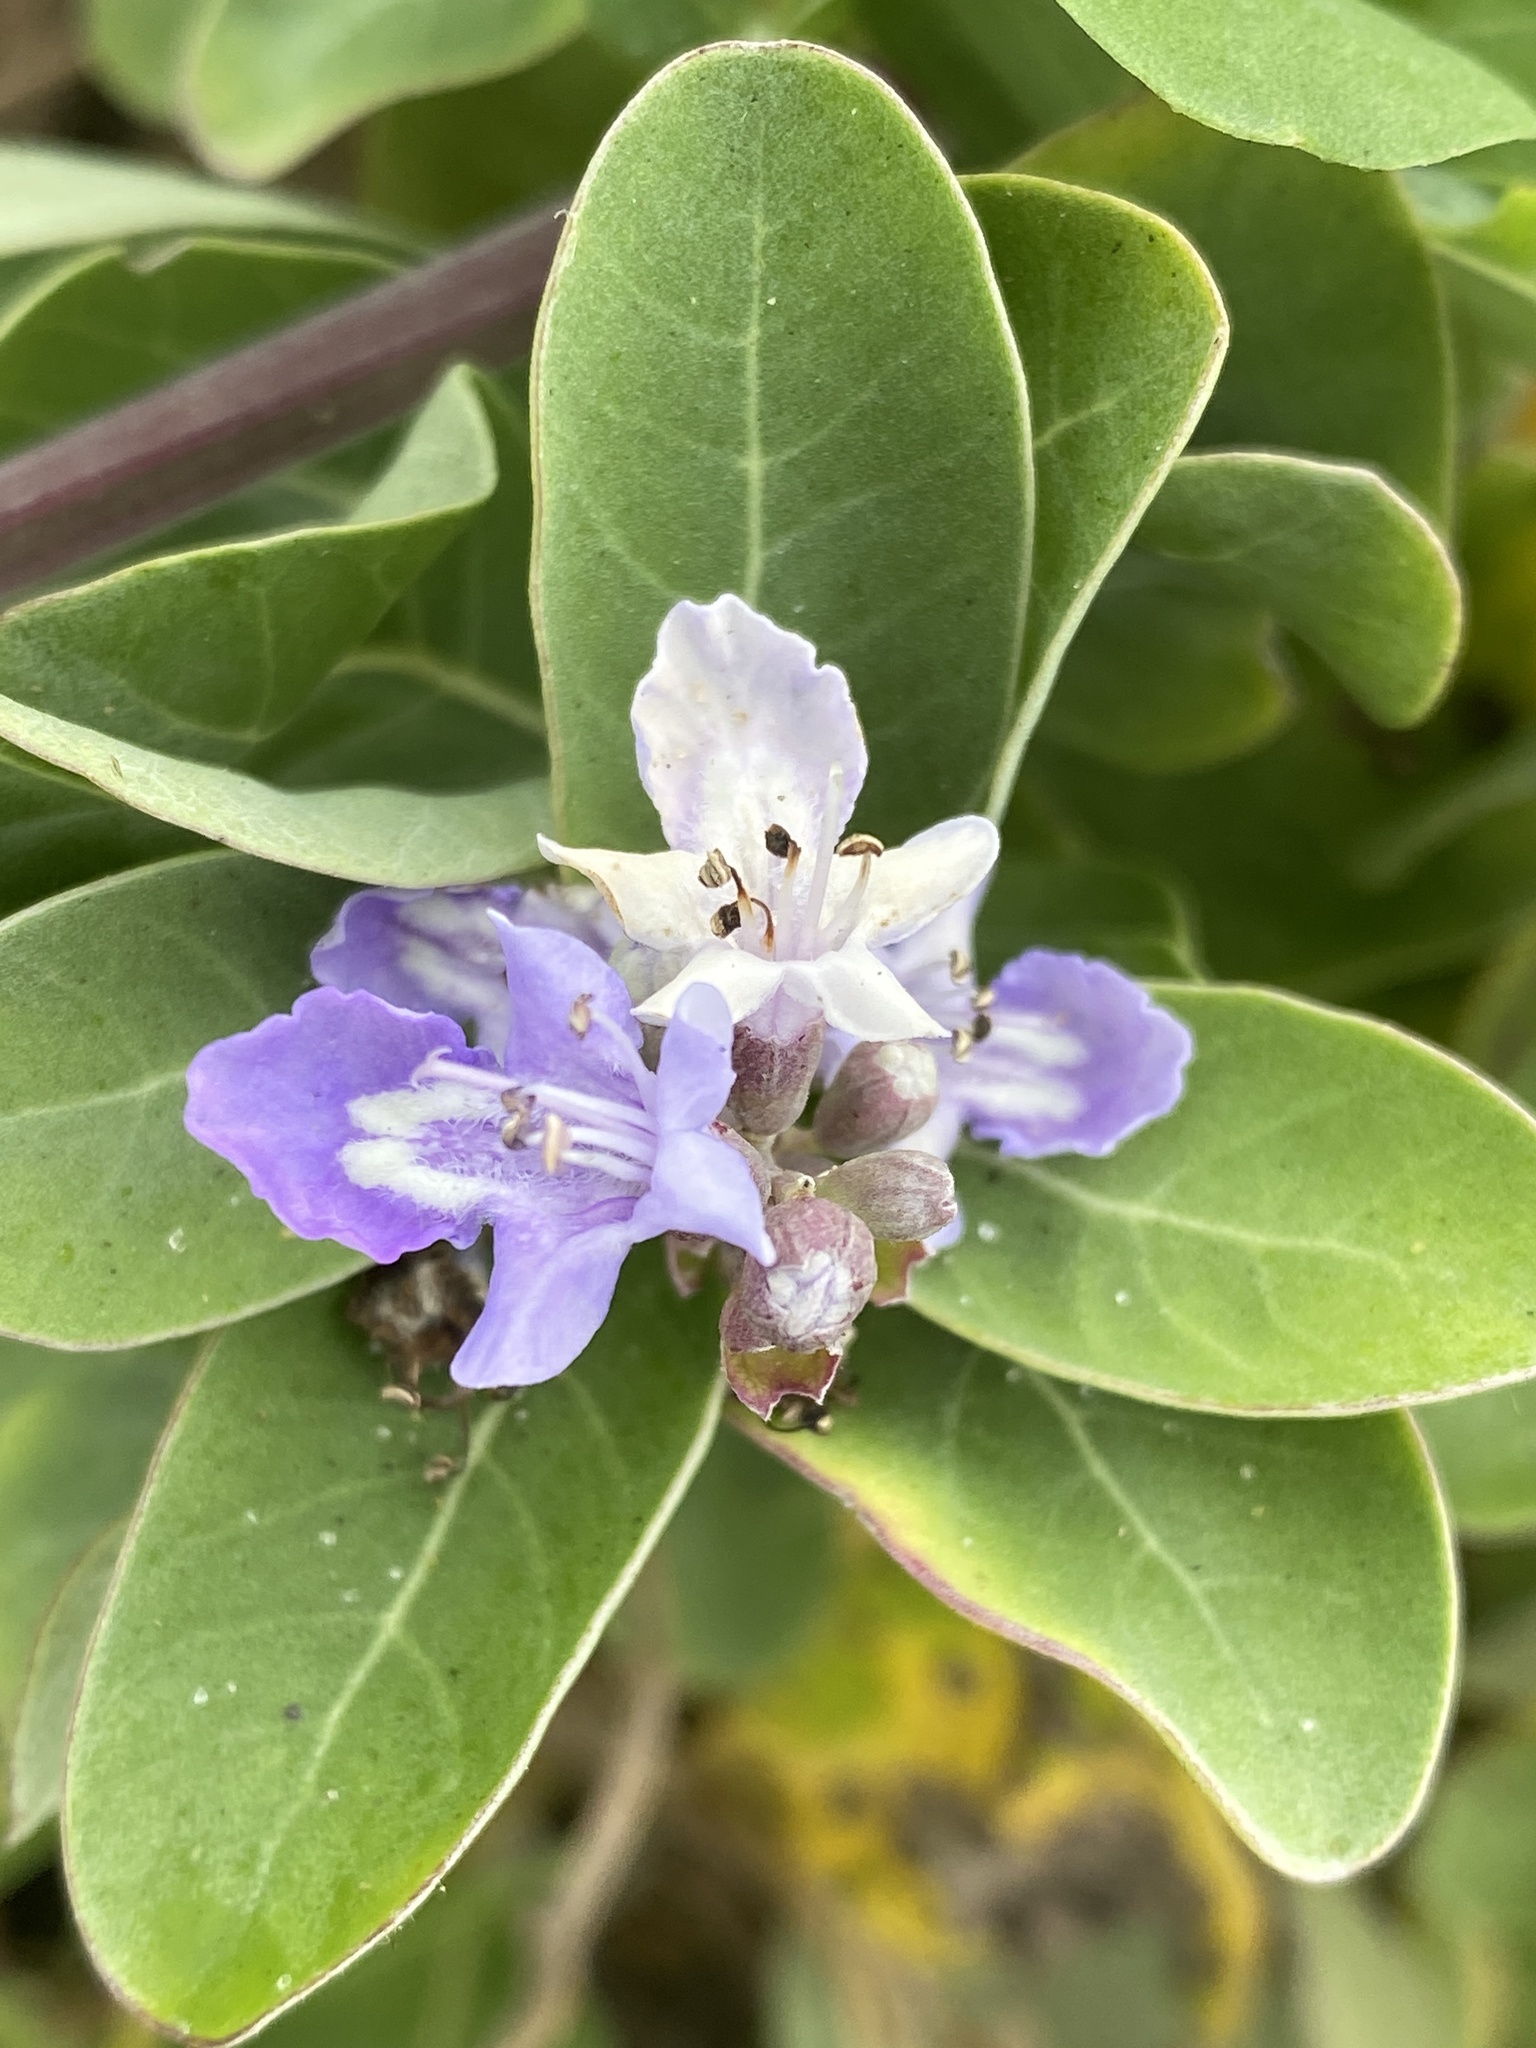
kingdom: Plantae
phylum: Tracheophyta
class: Magnoliopsida
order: Lamiales
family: Lamiaceae
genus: Vitex
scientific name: Vitex rotundifolia
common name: Beach vitex
